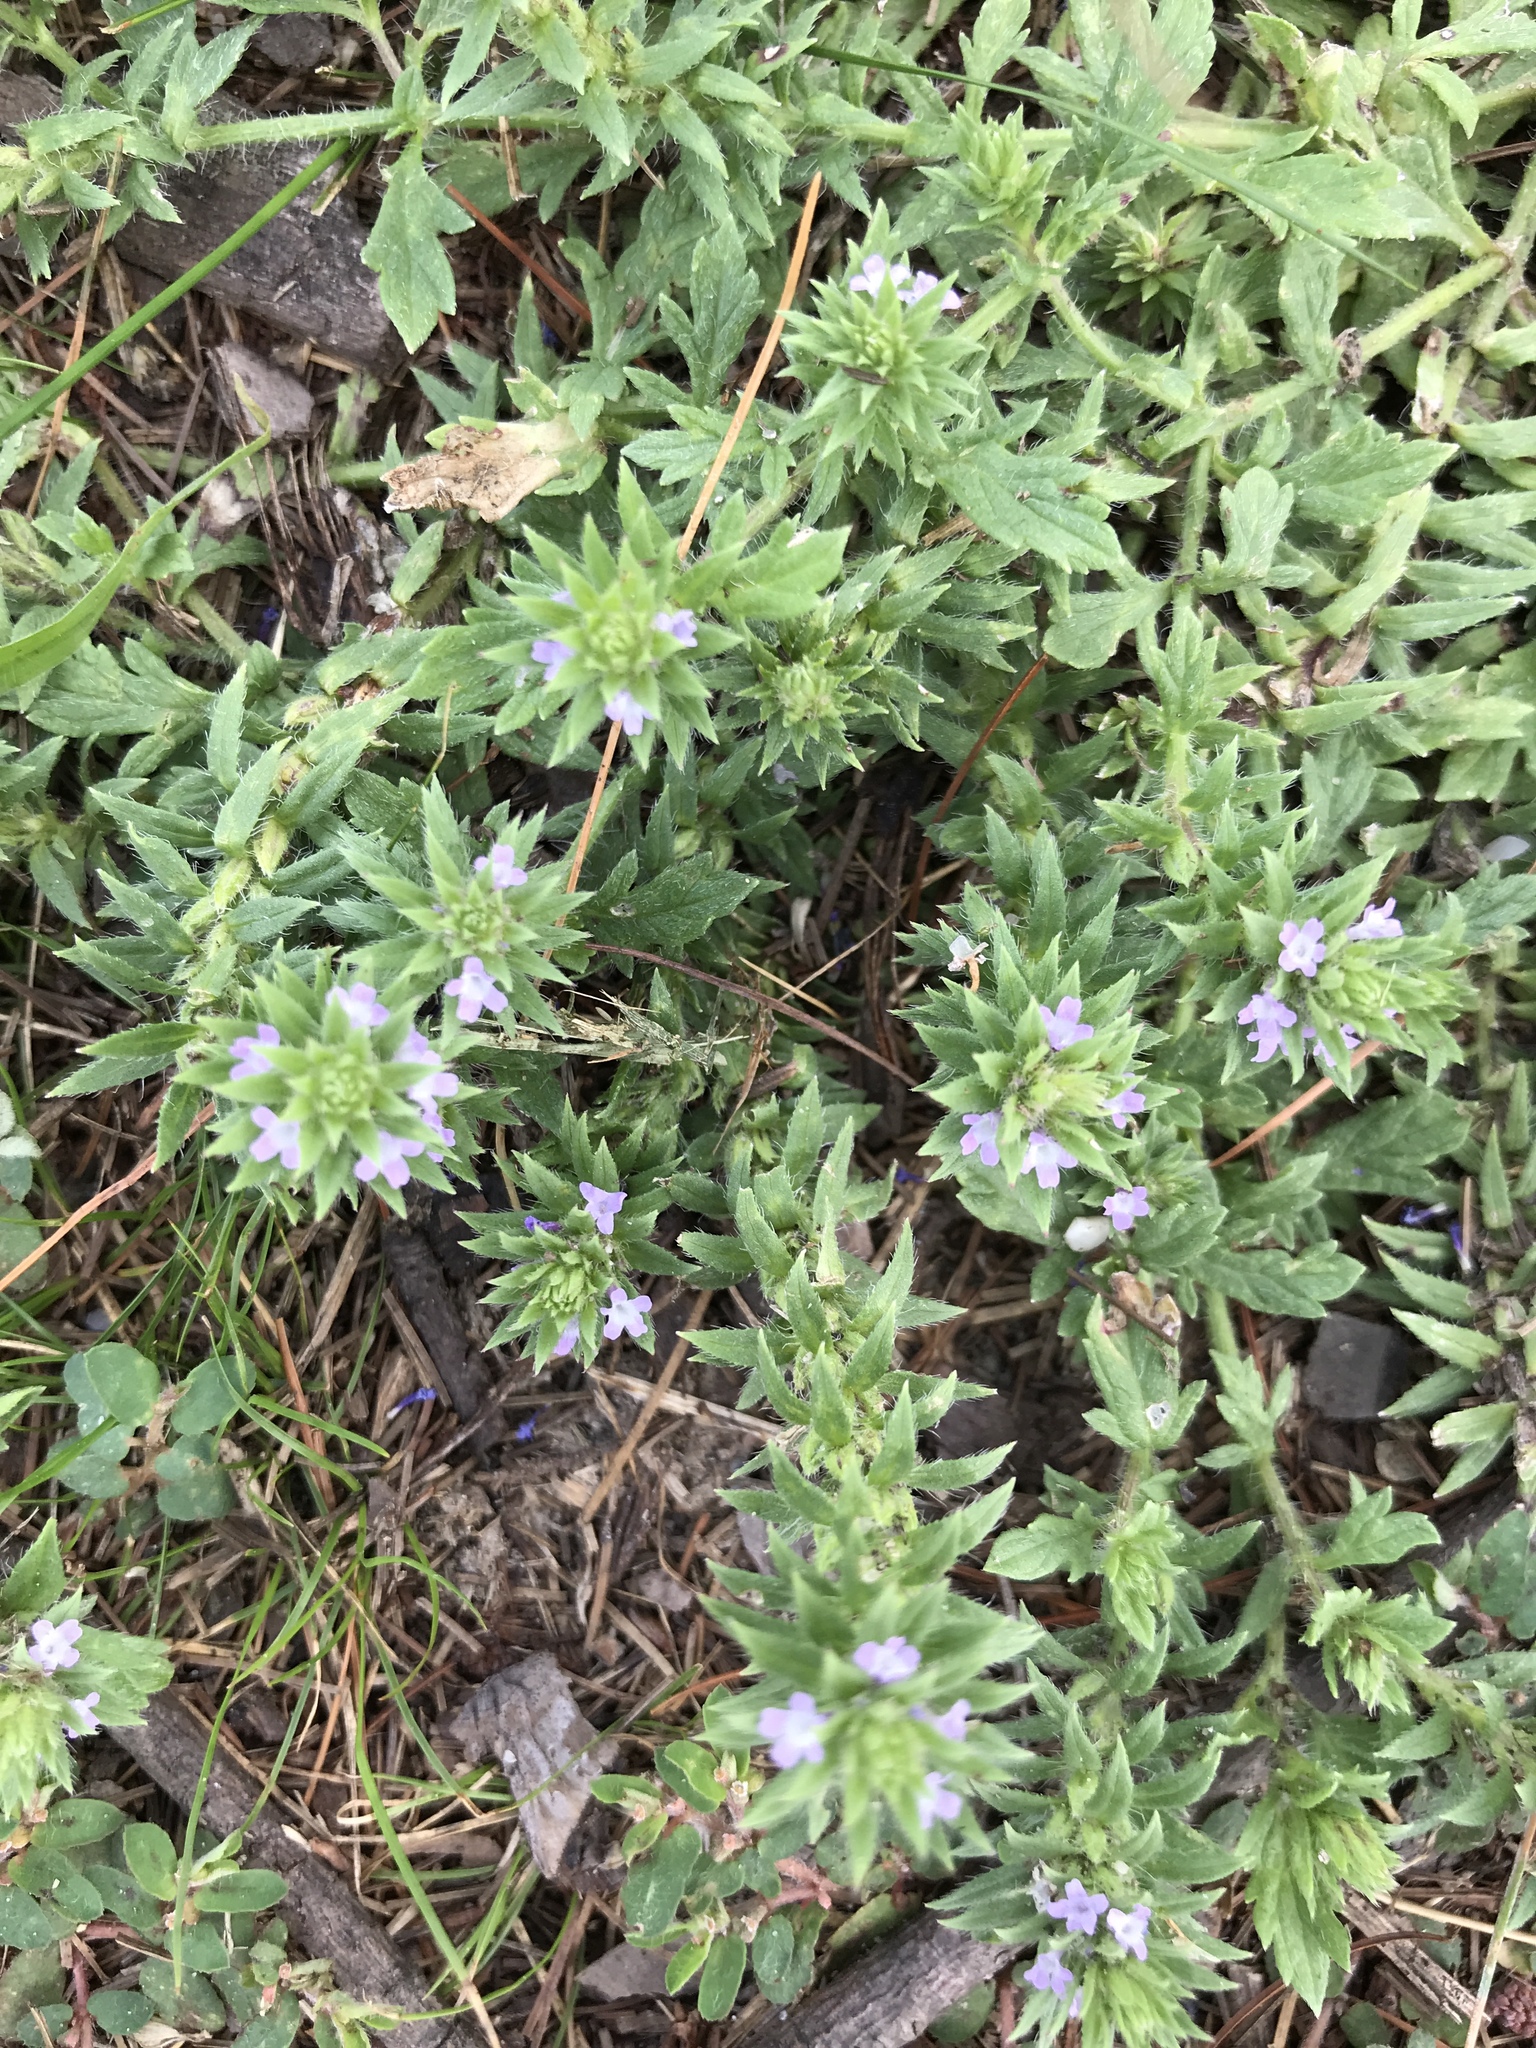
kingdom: Plantae
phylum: Tracheophyta
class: Magnoliopsida
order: Lamiales
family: Verbenaceae
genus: Verbena
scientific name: Verbena bracteata
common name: Bracted vervain
